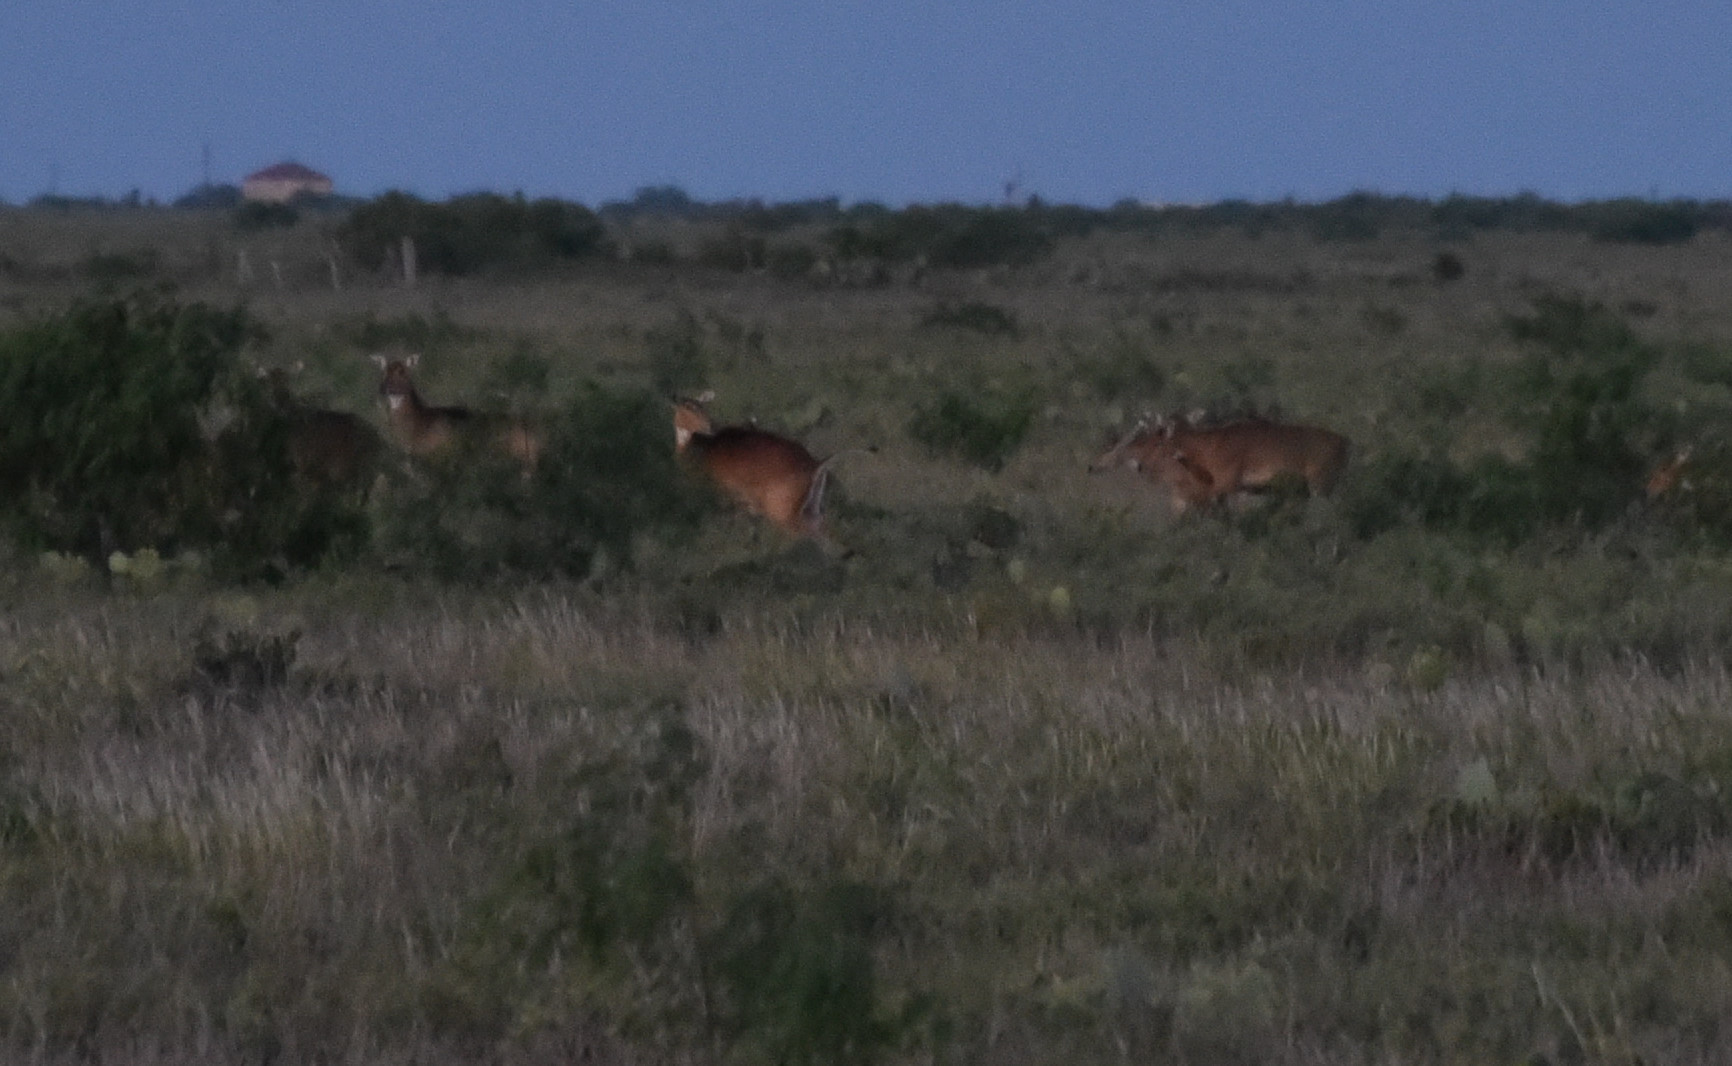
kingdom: Animalia
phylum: Chordata
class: Mammalia
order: Artiodactyla
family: Bovidae
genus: Boselaphus
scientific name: Boselaphus tragocamelus
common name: Nilgai
